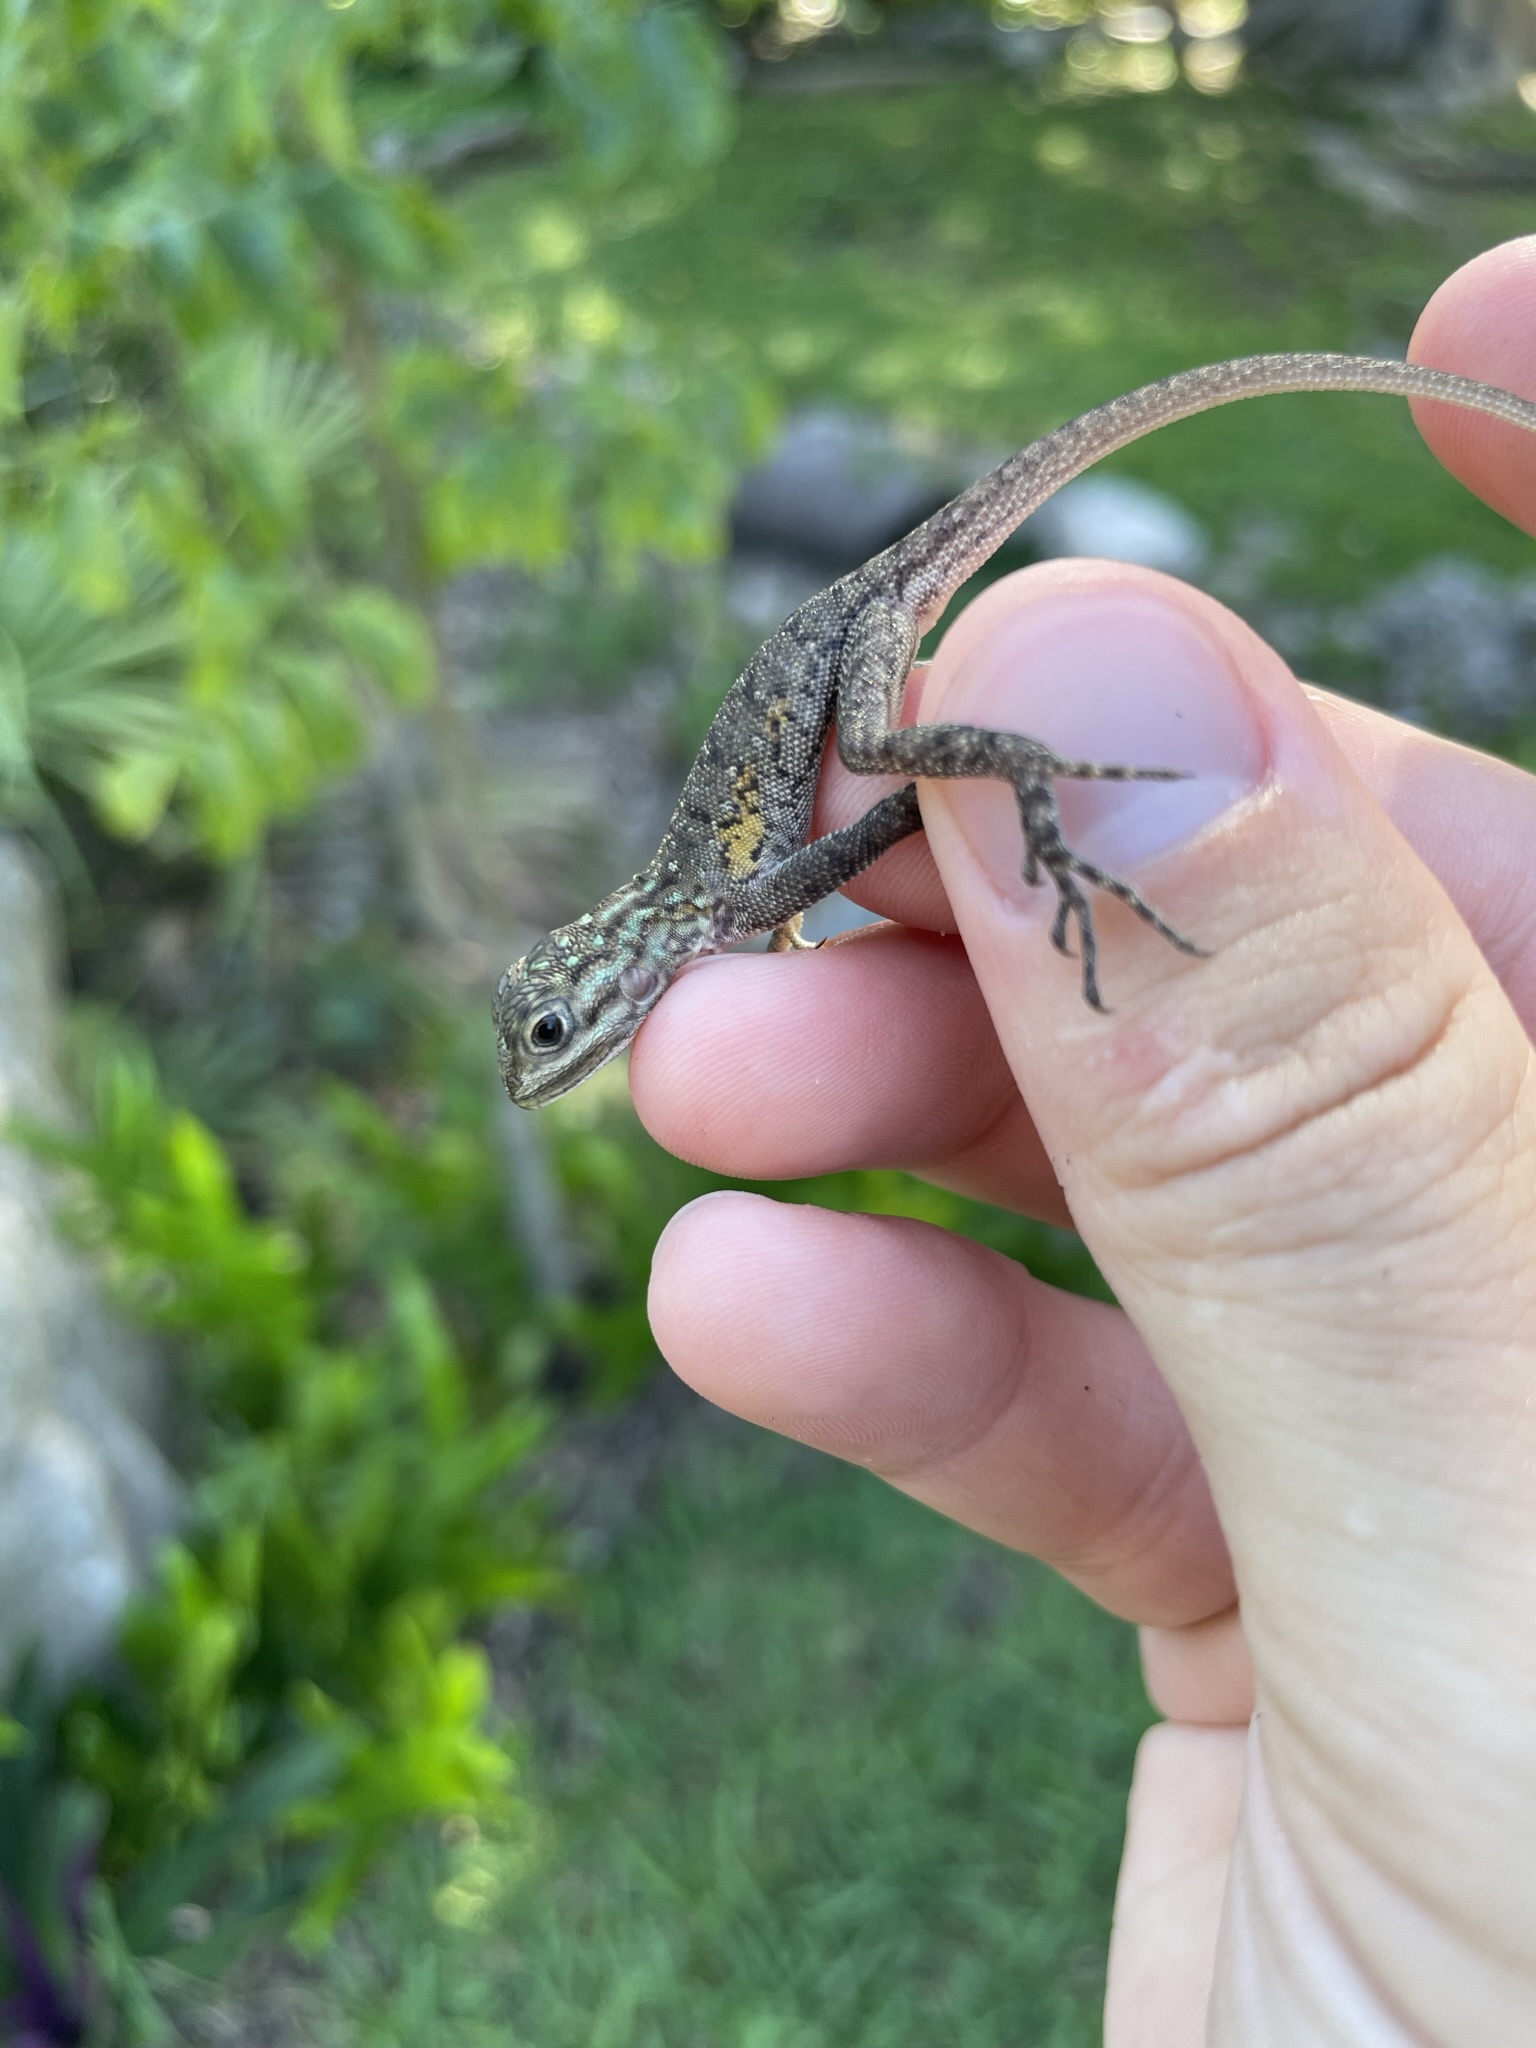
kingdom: Animalia
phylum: Chordata
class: Squamata
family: Agamidae
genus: Agama
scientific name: Agama picticauda
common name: Red-headed agama
